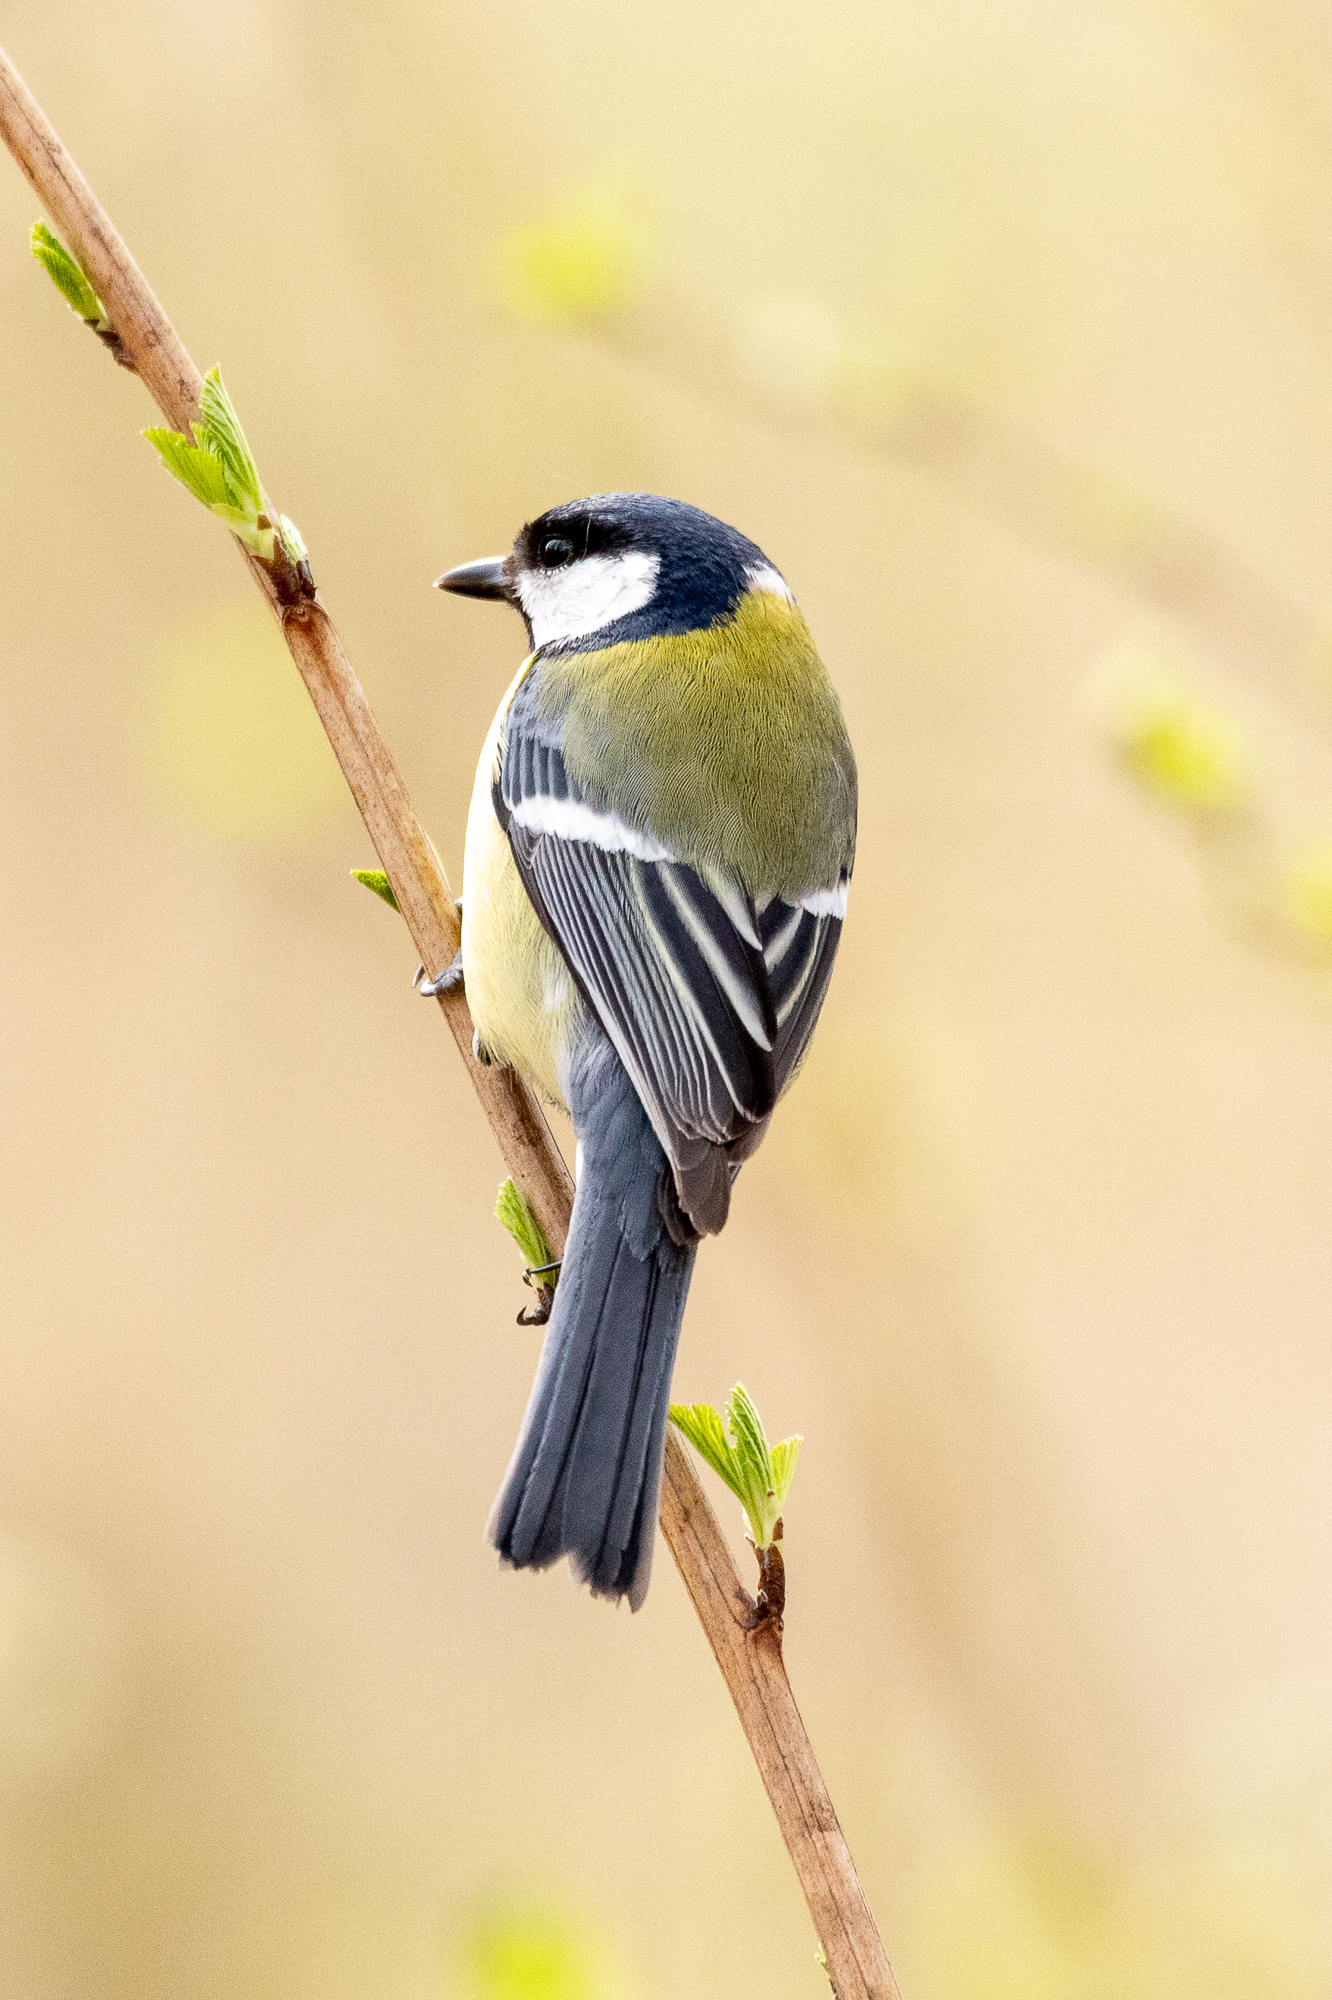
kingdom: Animalia
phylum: Chordata
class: Aves
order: Passeriformes
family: Paridae
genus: Parus
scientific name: Parus major
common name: Great tit
